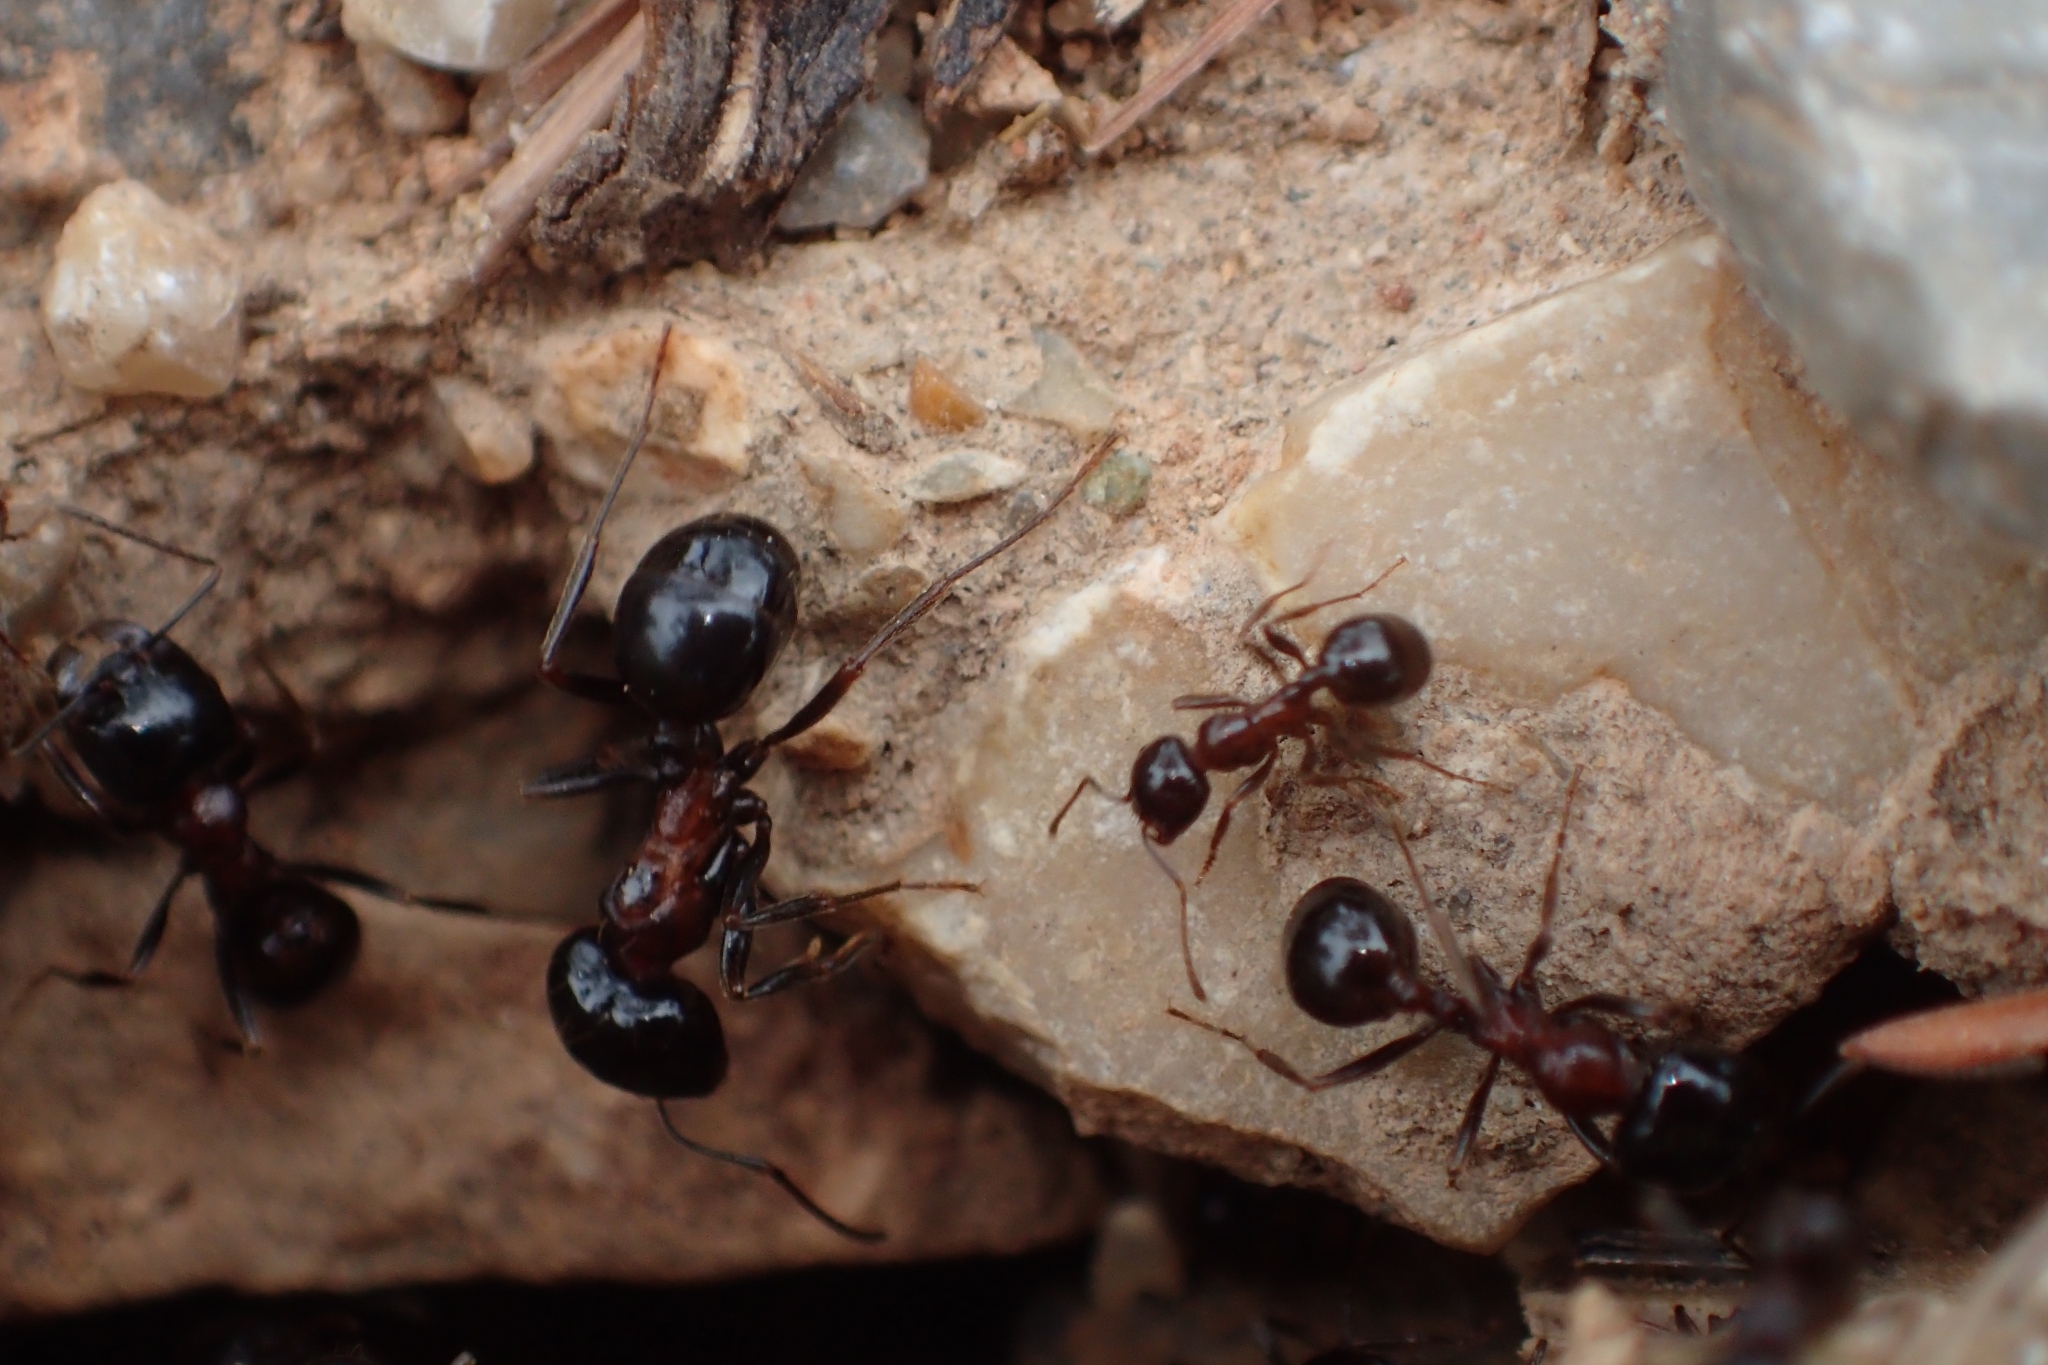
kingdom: Animalia
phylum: Arthropoda
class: Insecta
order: Hymenoptera
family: Formicidae
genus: Messor
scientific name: Messor wasmanni
